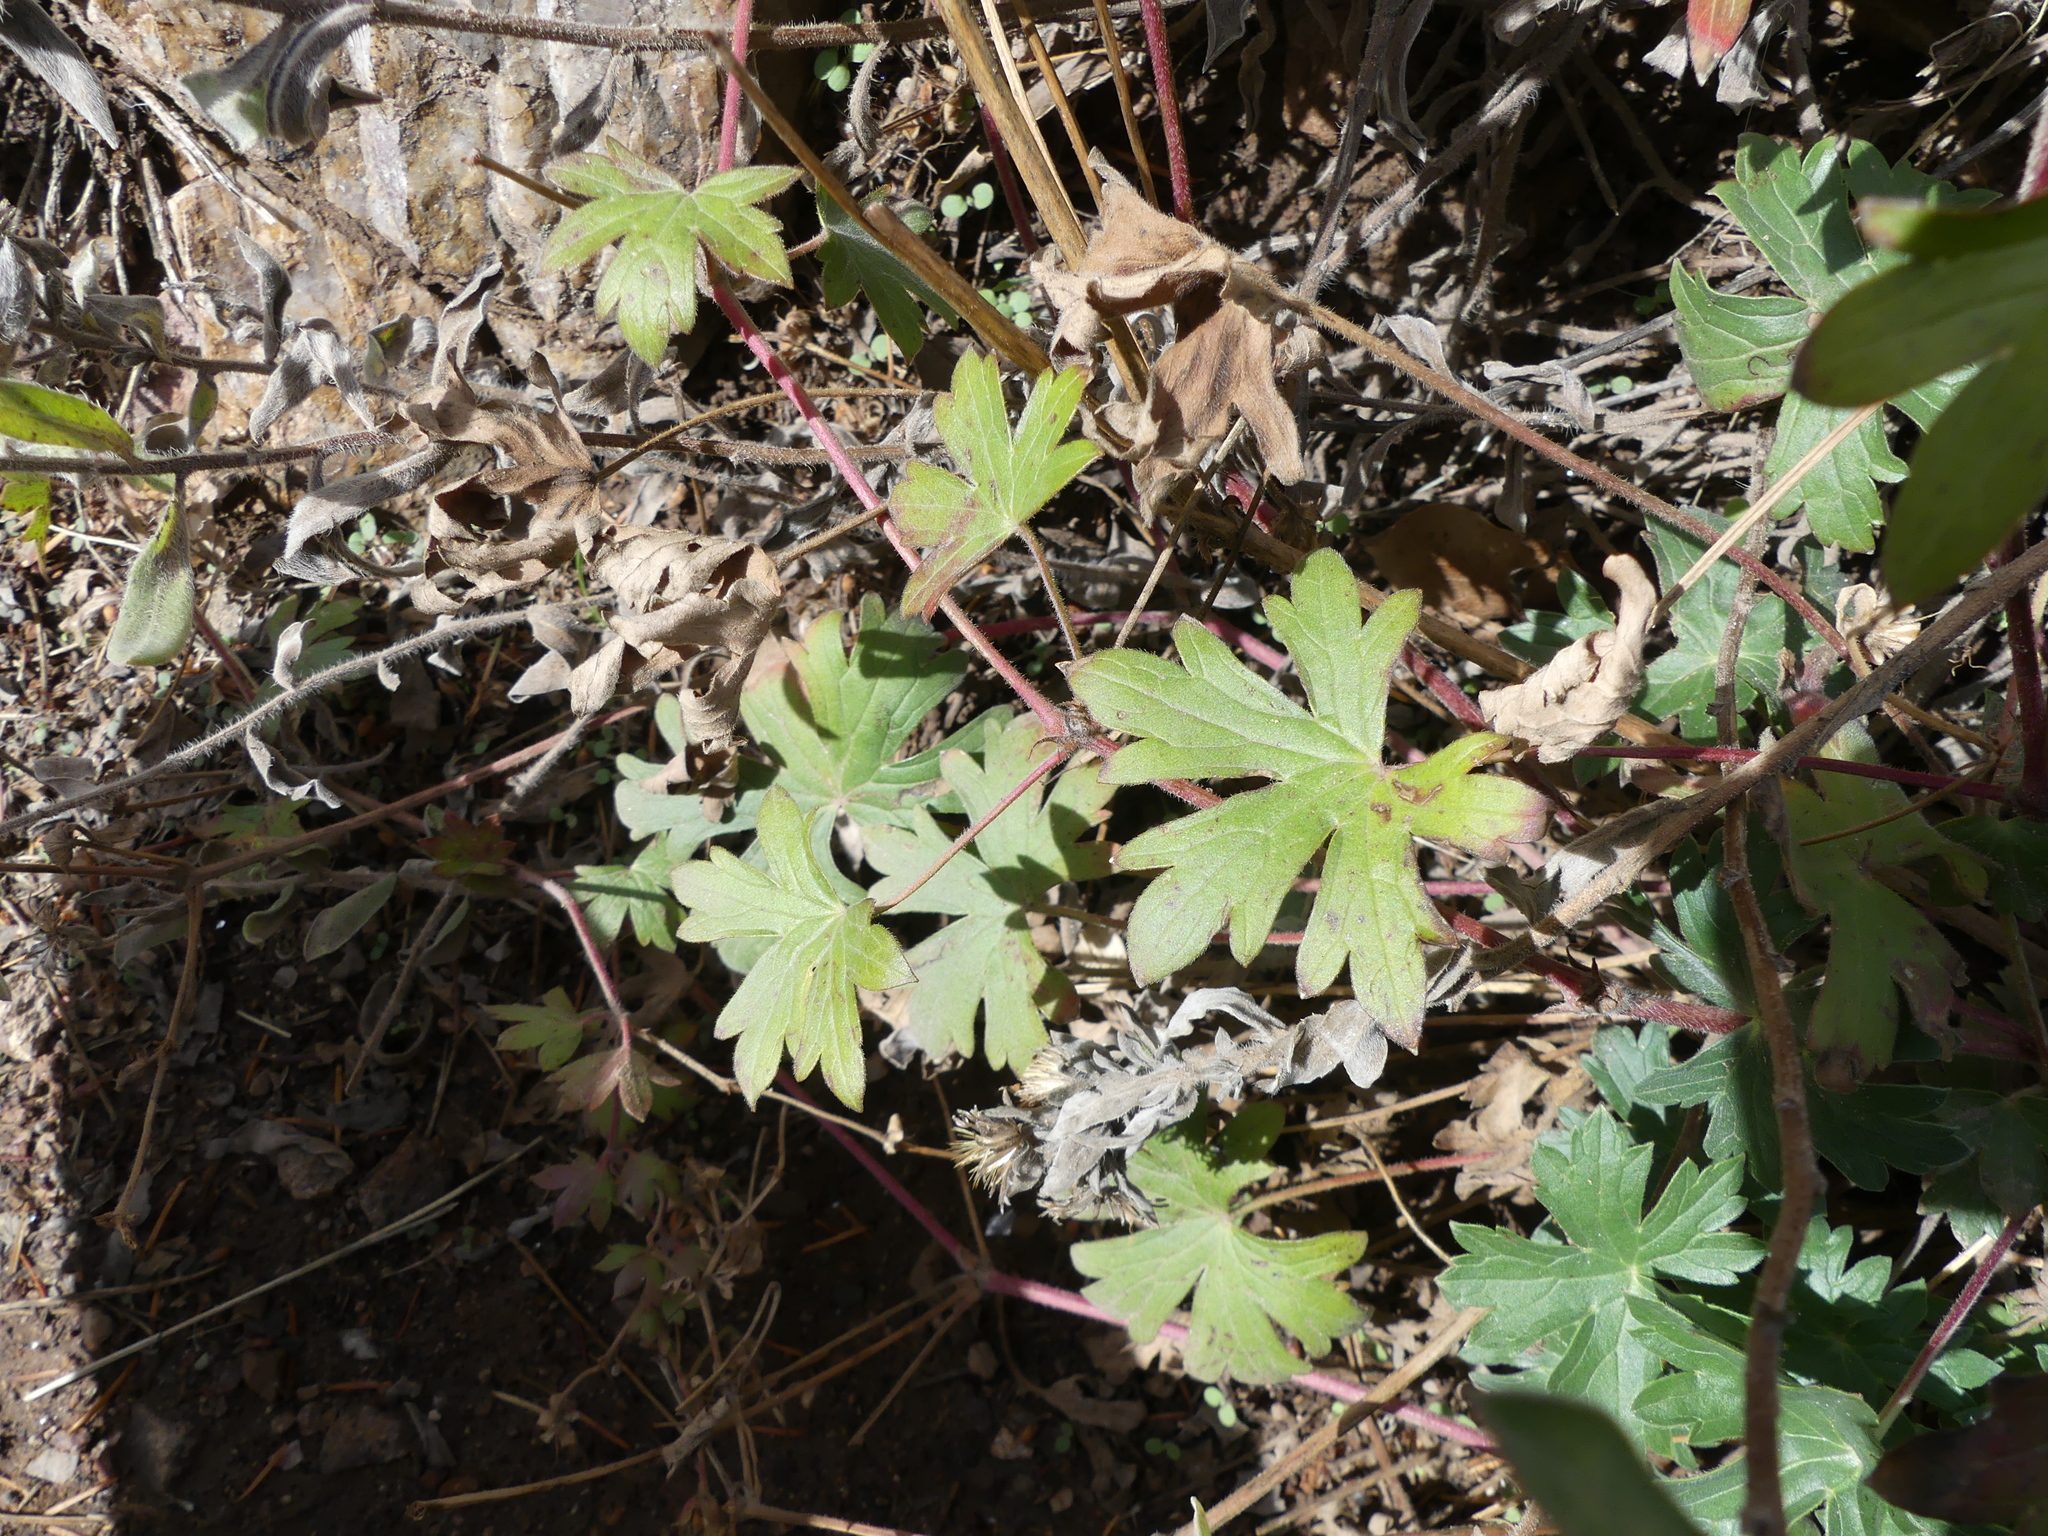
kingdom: Plantae
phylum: Tracheophyta
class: Magnoliopsida
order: Geraniales
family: Geraniaceae
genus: Geranium
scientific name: Geranium caespitosum
